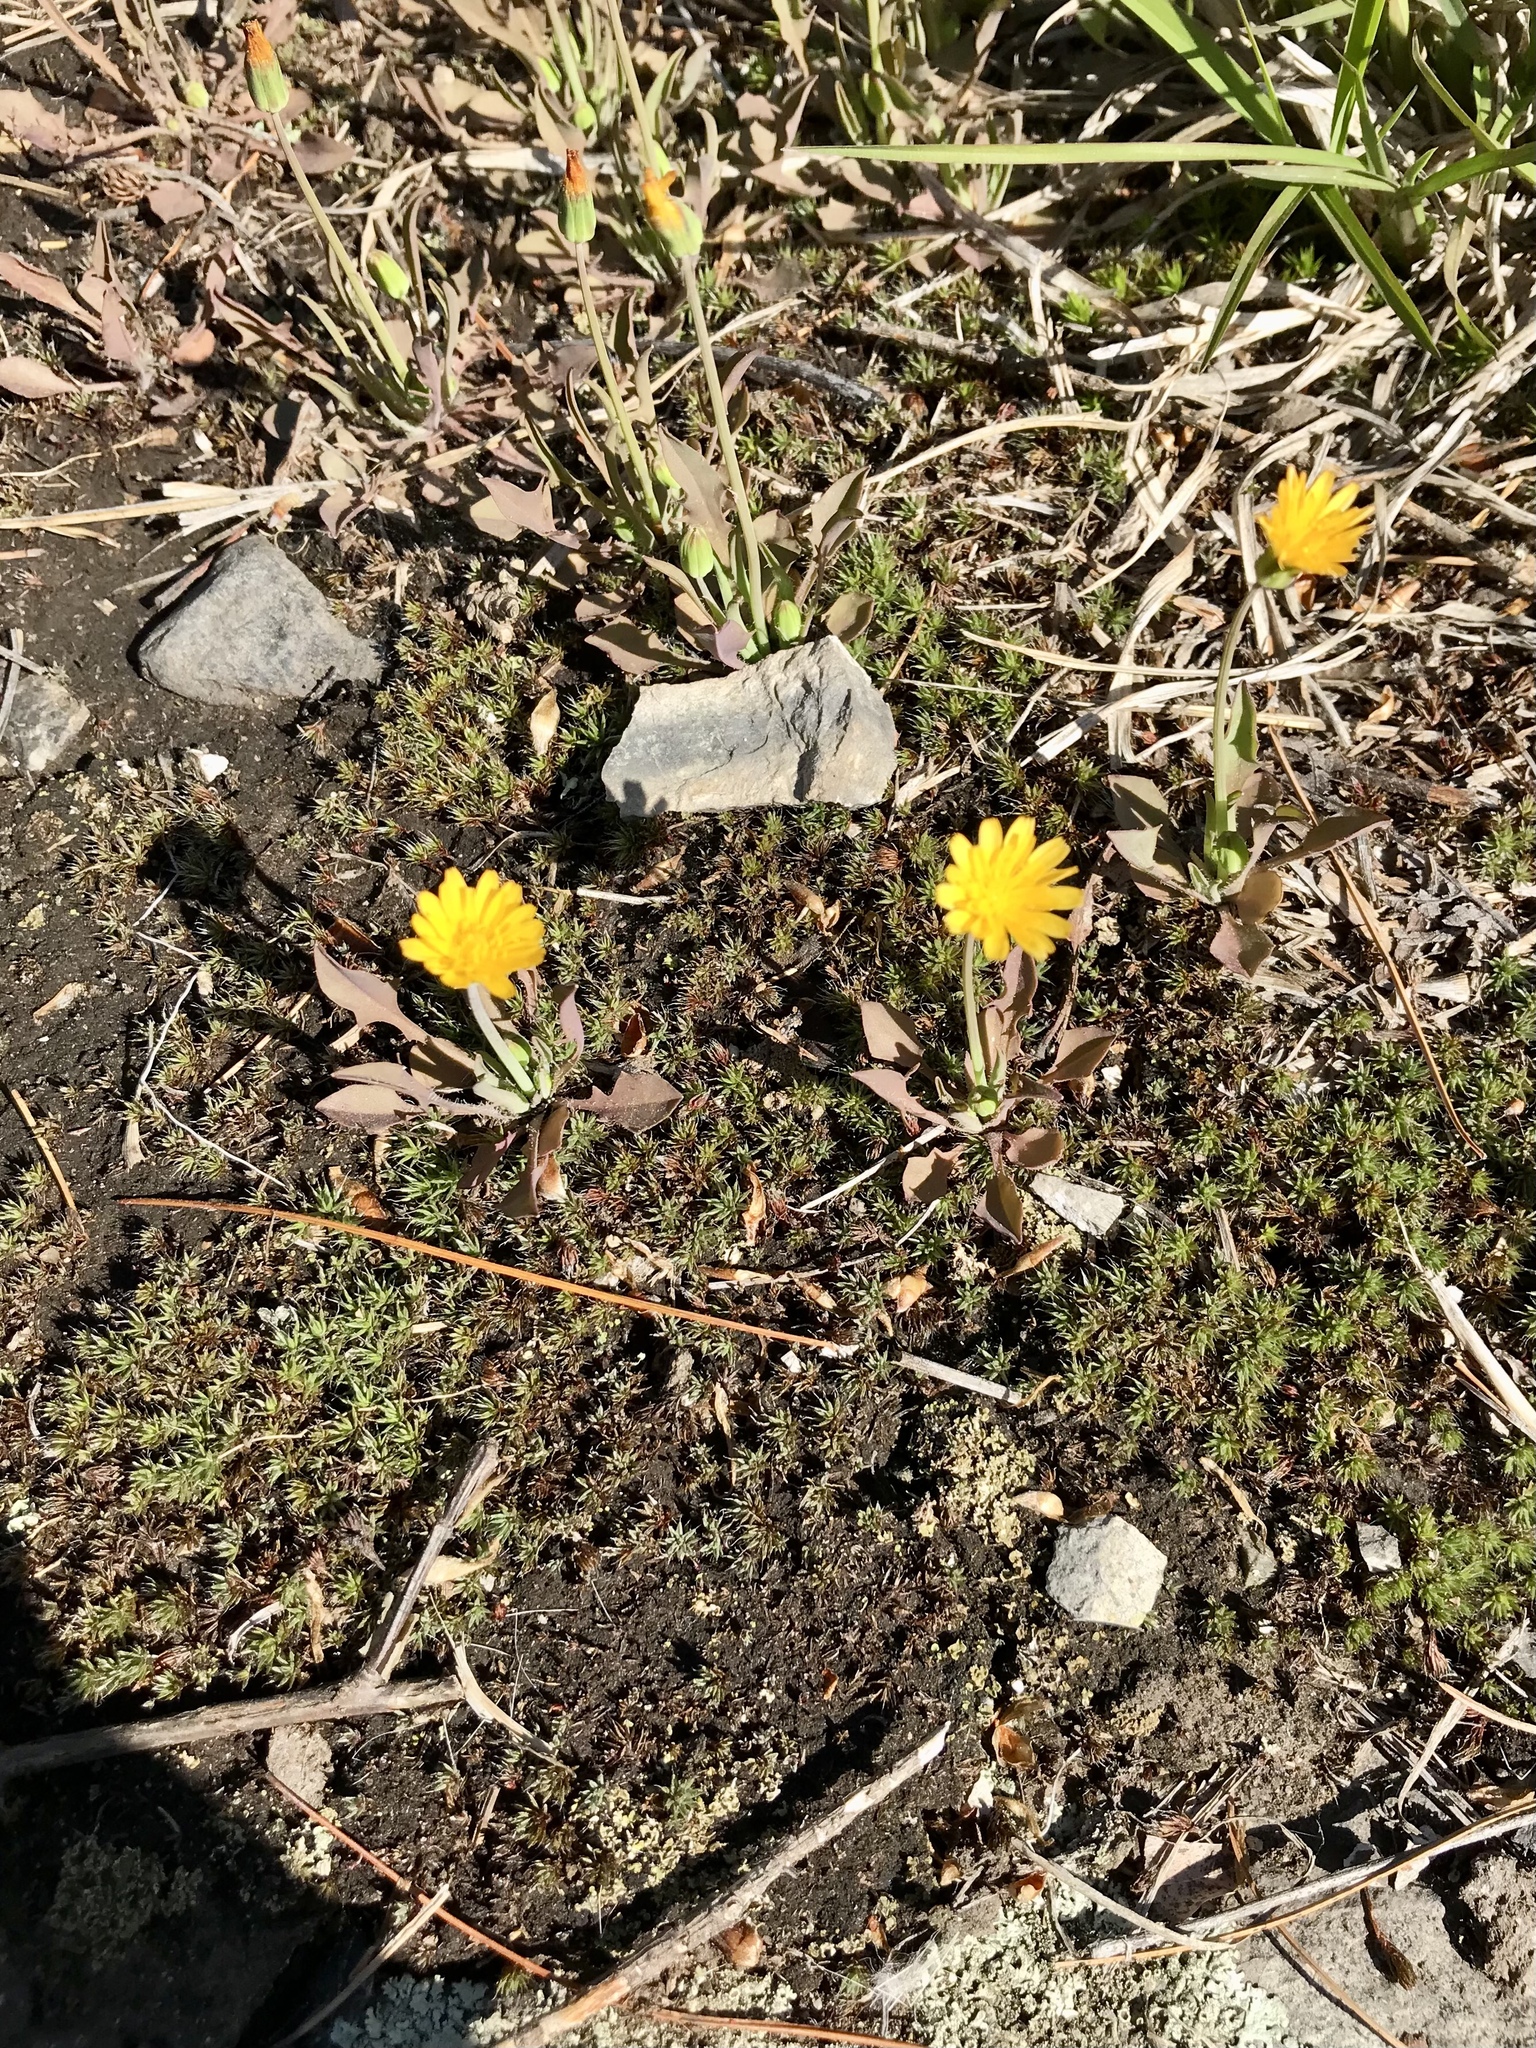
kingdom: Plantae
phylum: Tracheophyta
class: Magnoliopsida
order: Asterales
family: Asteraceae
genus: Krigia
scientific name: Krigia virginica
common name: Virginia dwarf-dandelion
